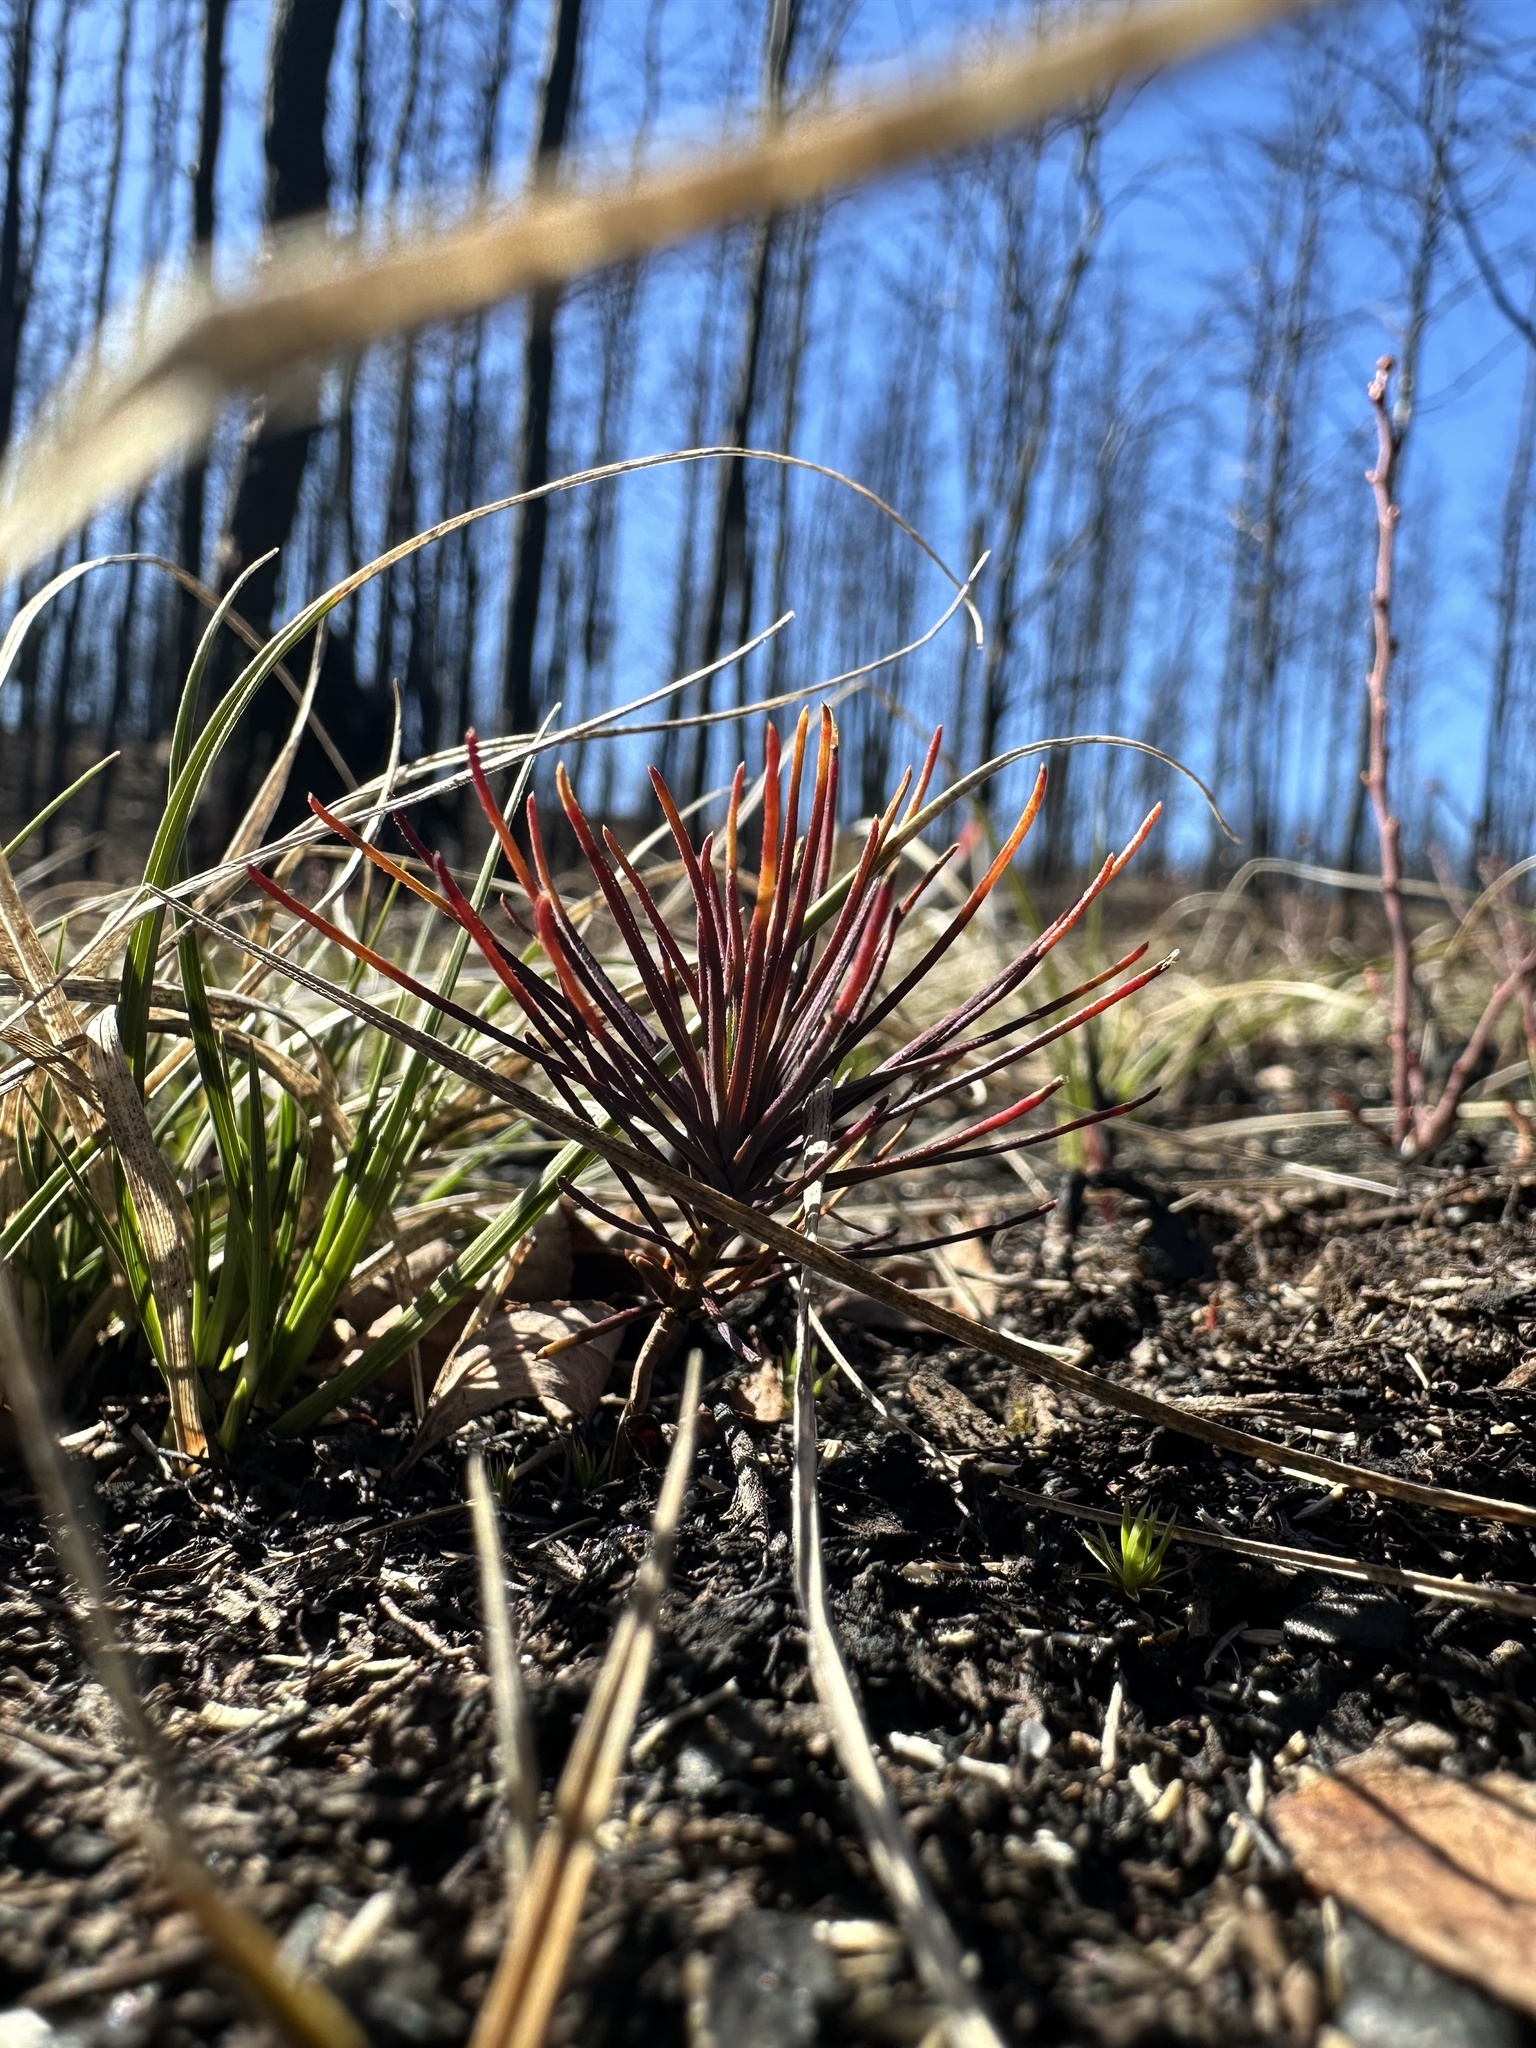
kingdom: Plantae
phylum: Tracheophyta
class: Pinopsida
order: Pinales
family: Pinaceae
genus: Pinus
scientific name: Pinus banksiana
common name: Jack pine
